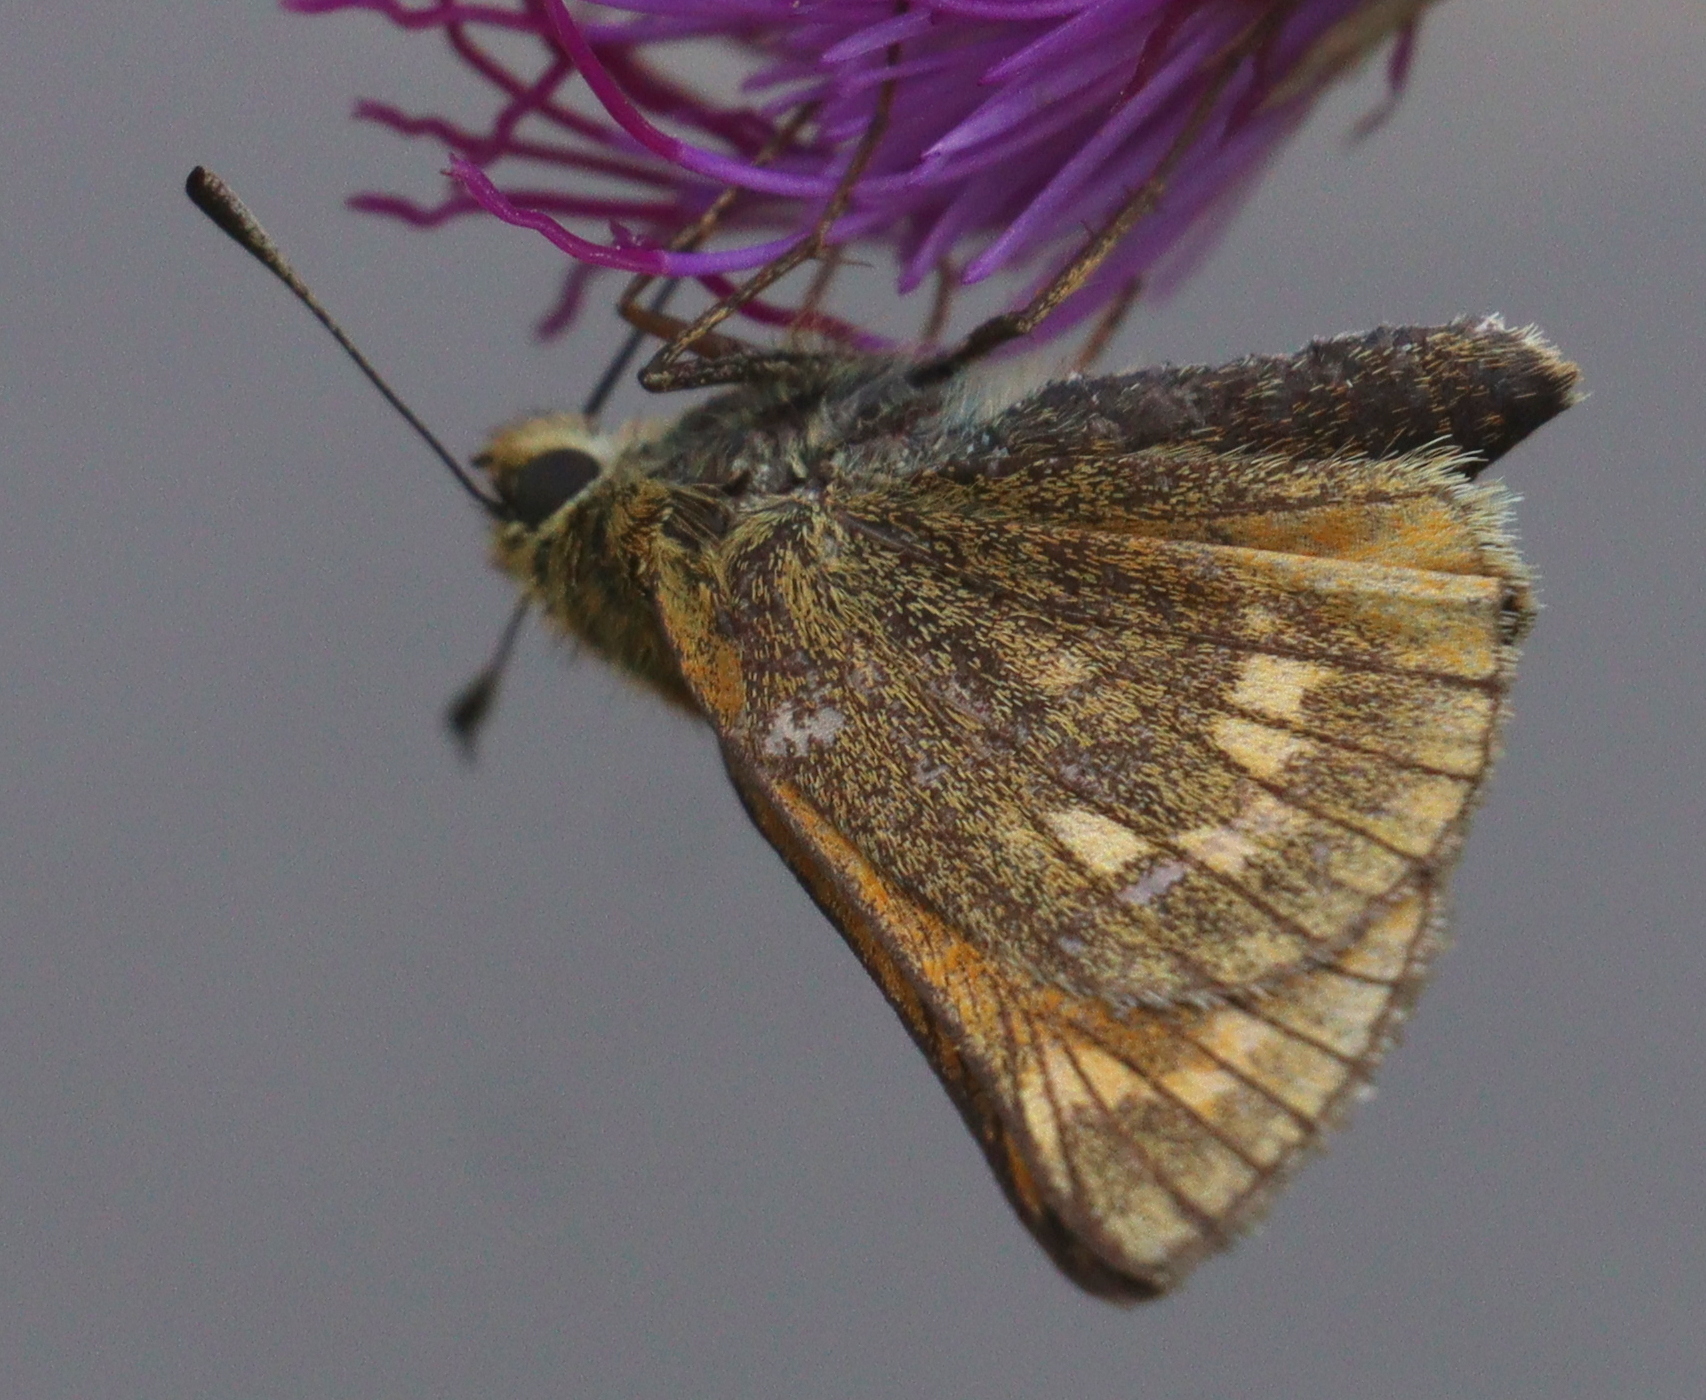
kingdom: Animalia
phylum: Arthropoda
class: Insecta
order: Lepidoptera
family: Hesperiidae
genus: Ochlodes
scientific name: Ochlodes venata
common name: Large skipper
